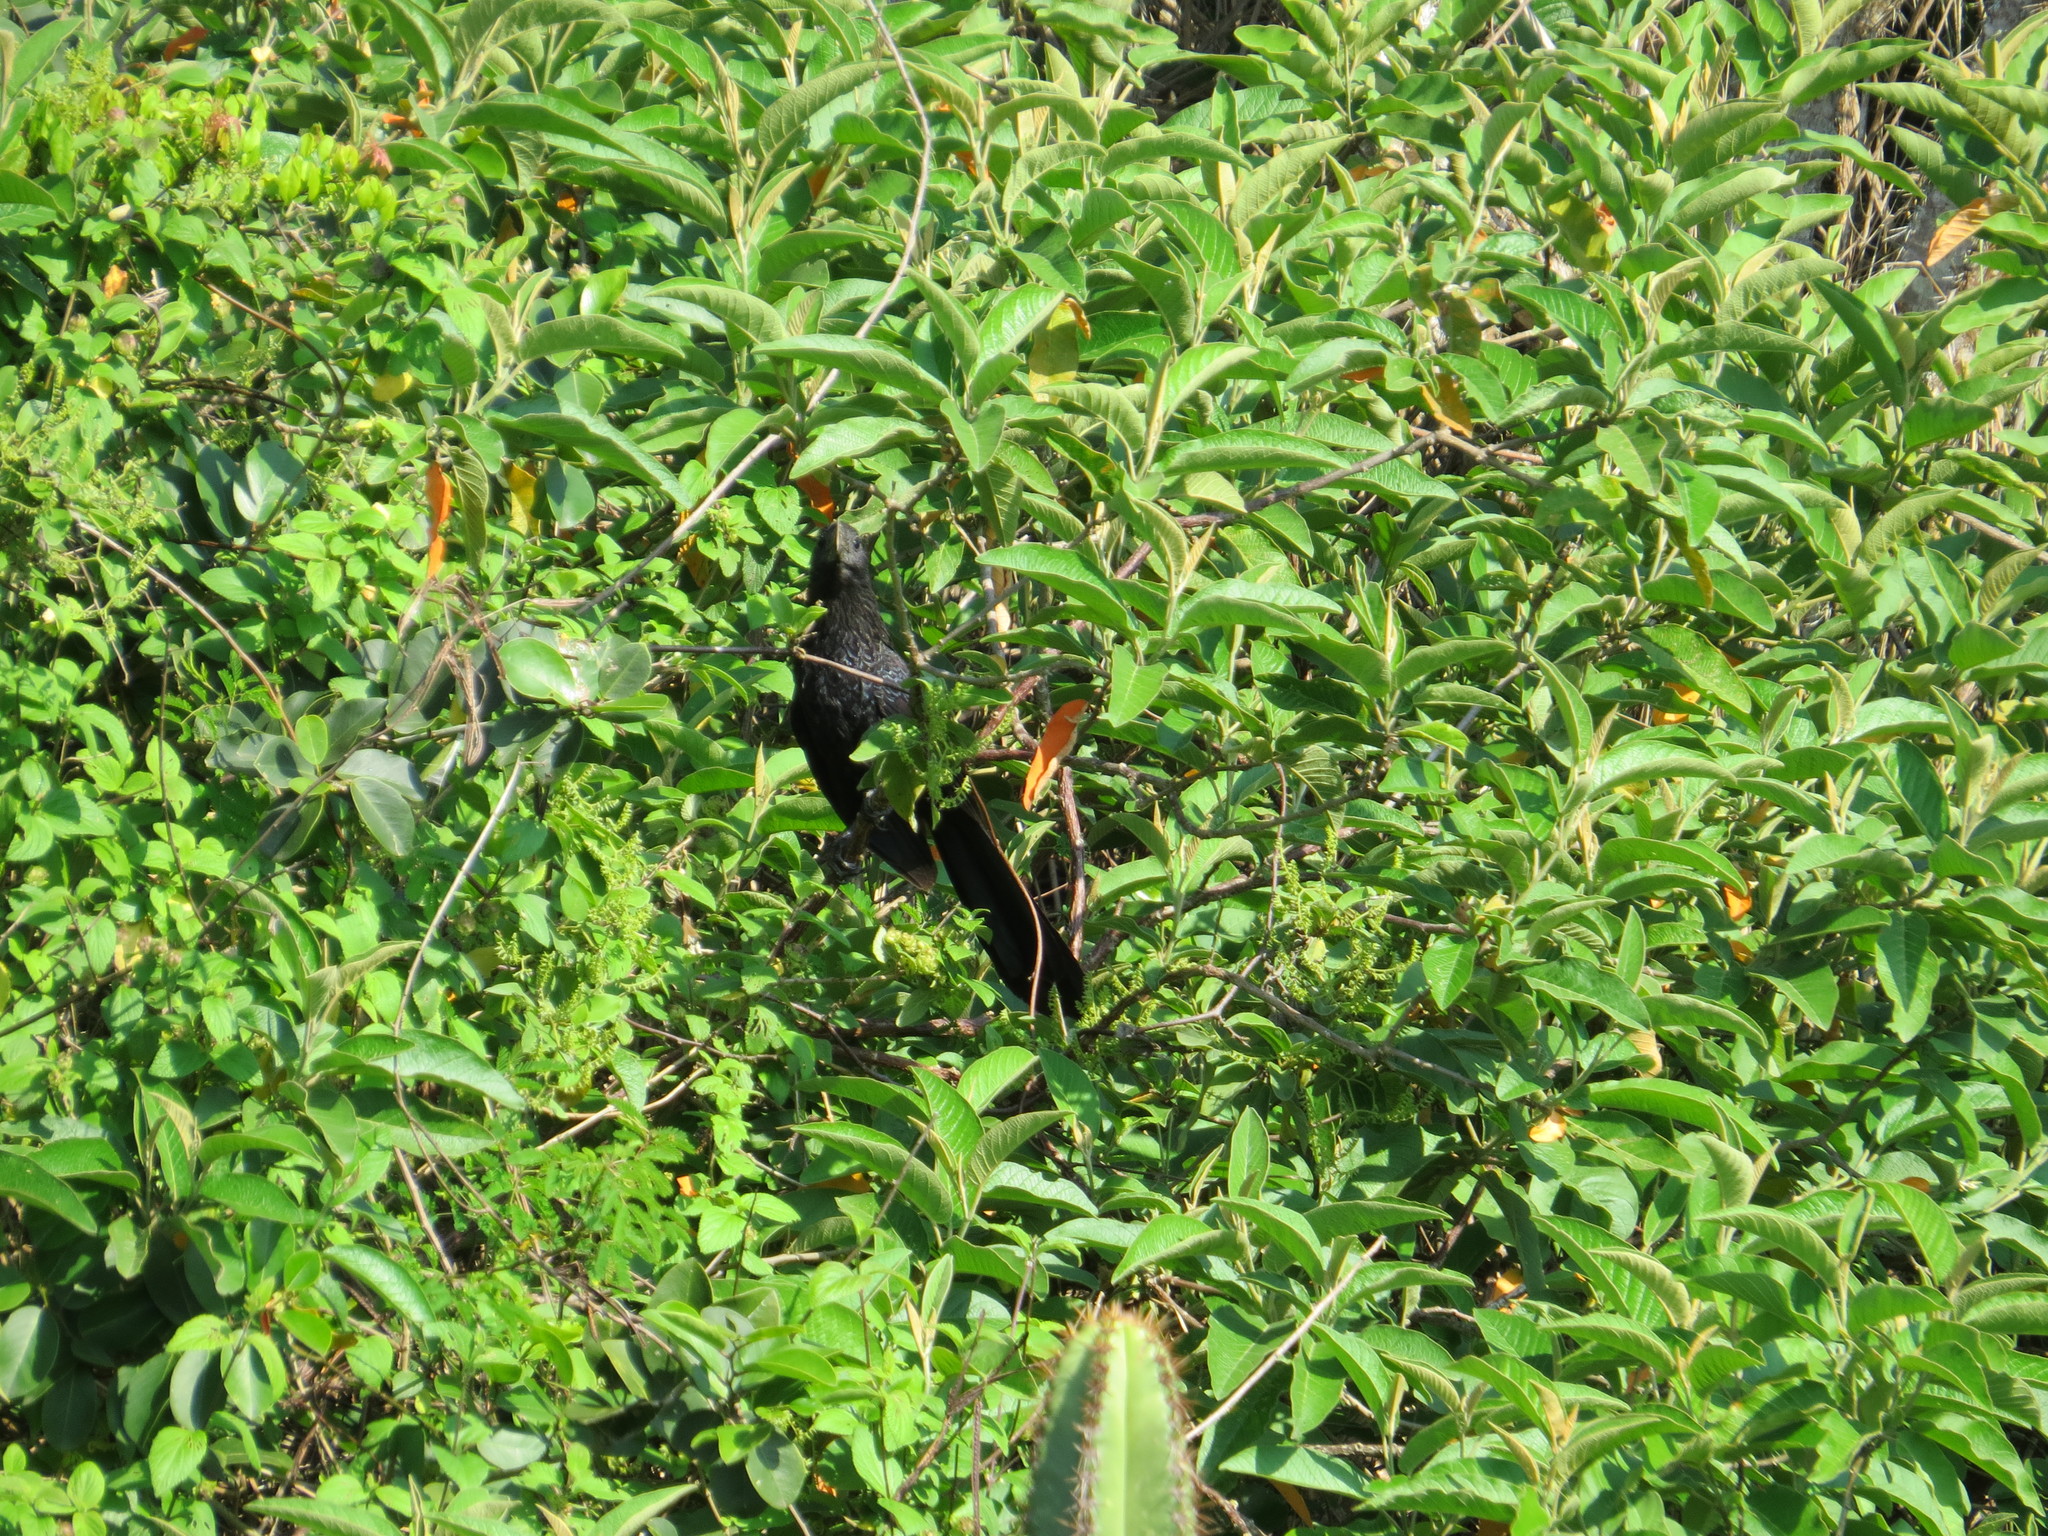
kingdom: Animalia
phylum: Chordata
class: Aves
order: Cuculiformes
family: Cuculidae
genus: Crotophaga
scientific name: Crotophaga ani
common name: Smooth-billed ani
